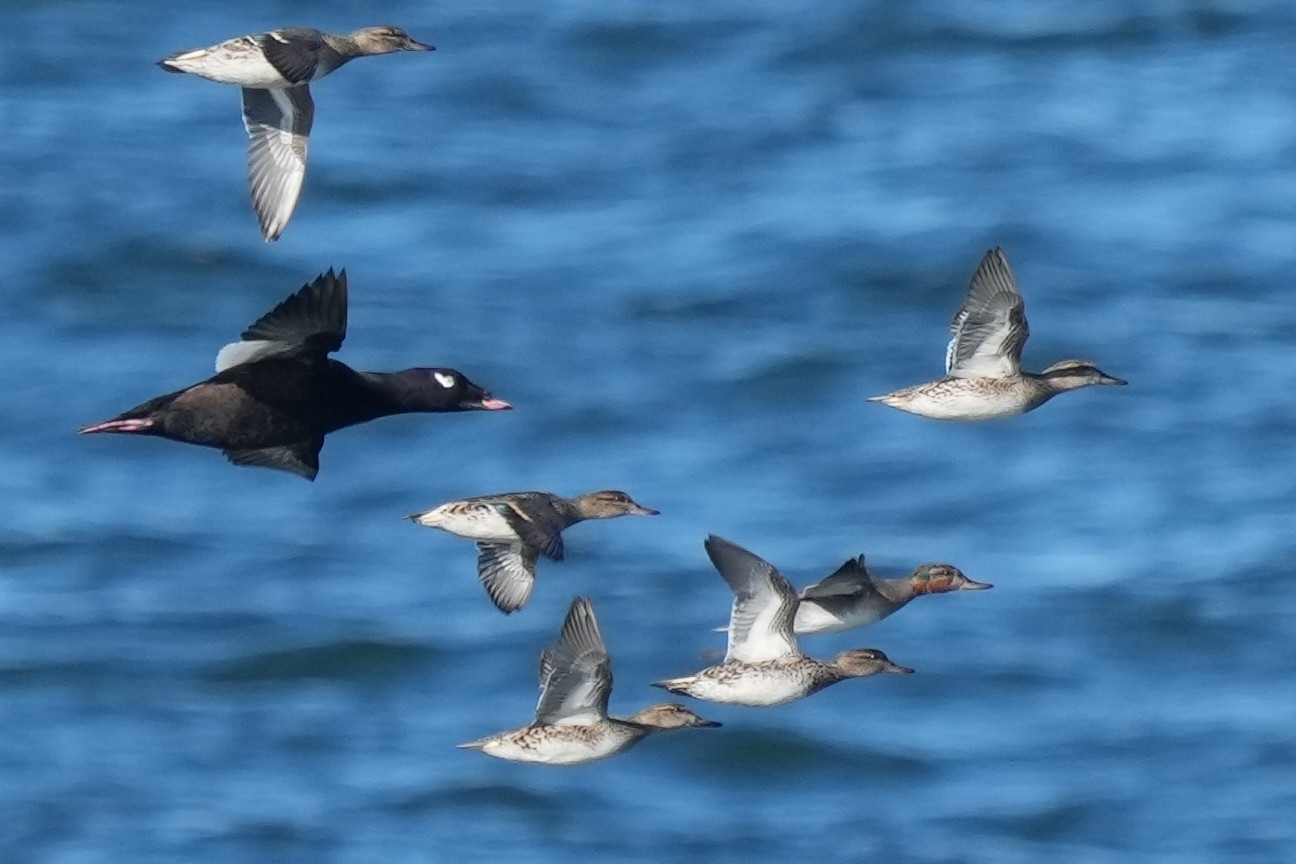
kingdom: Animalia
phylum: Chordata
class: Aves
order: Anseriformes
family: Anatidae
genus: Anas
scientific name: Anas crecca
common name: Eurasian teal
